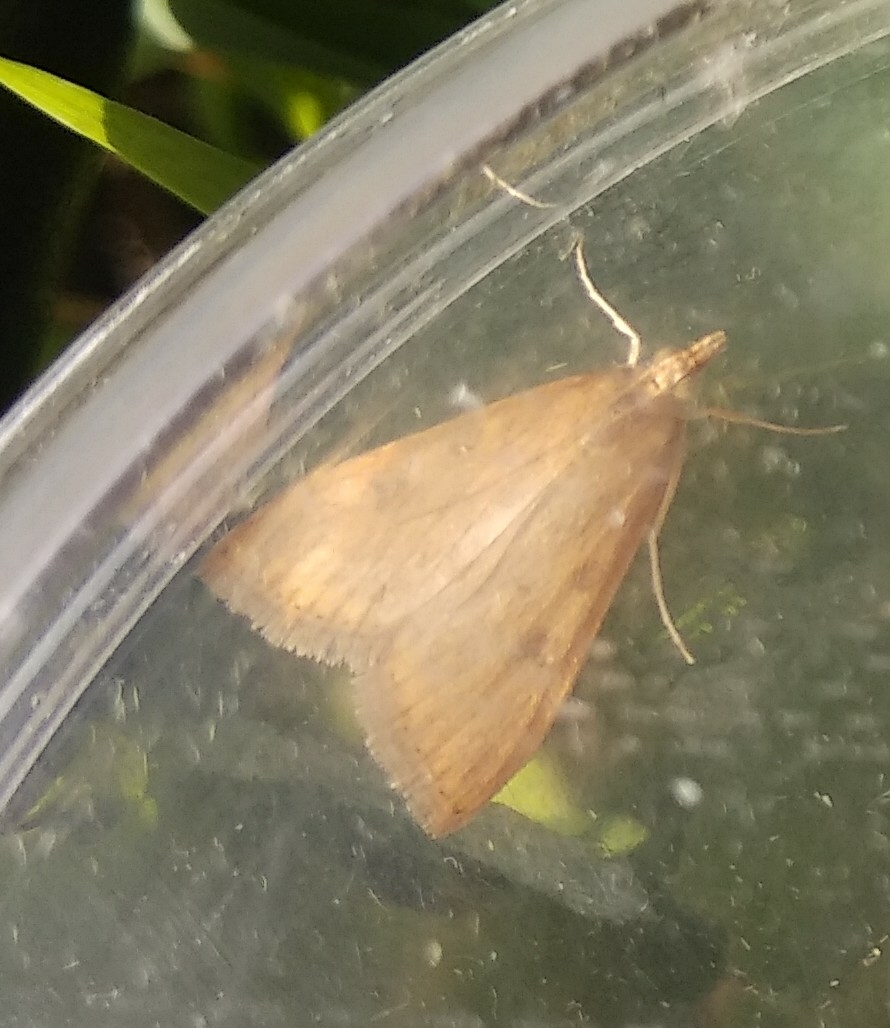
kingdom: Animalia
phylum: Arthropoda
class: Insecta
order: Lepidoptera
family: Crambidae
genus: Udea
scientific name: Udea ferrugalis
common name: Rusty dot
